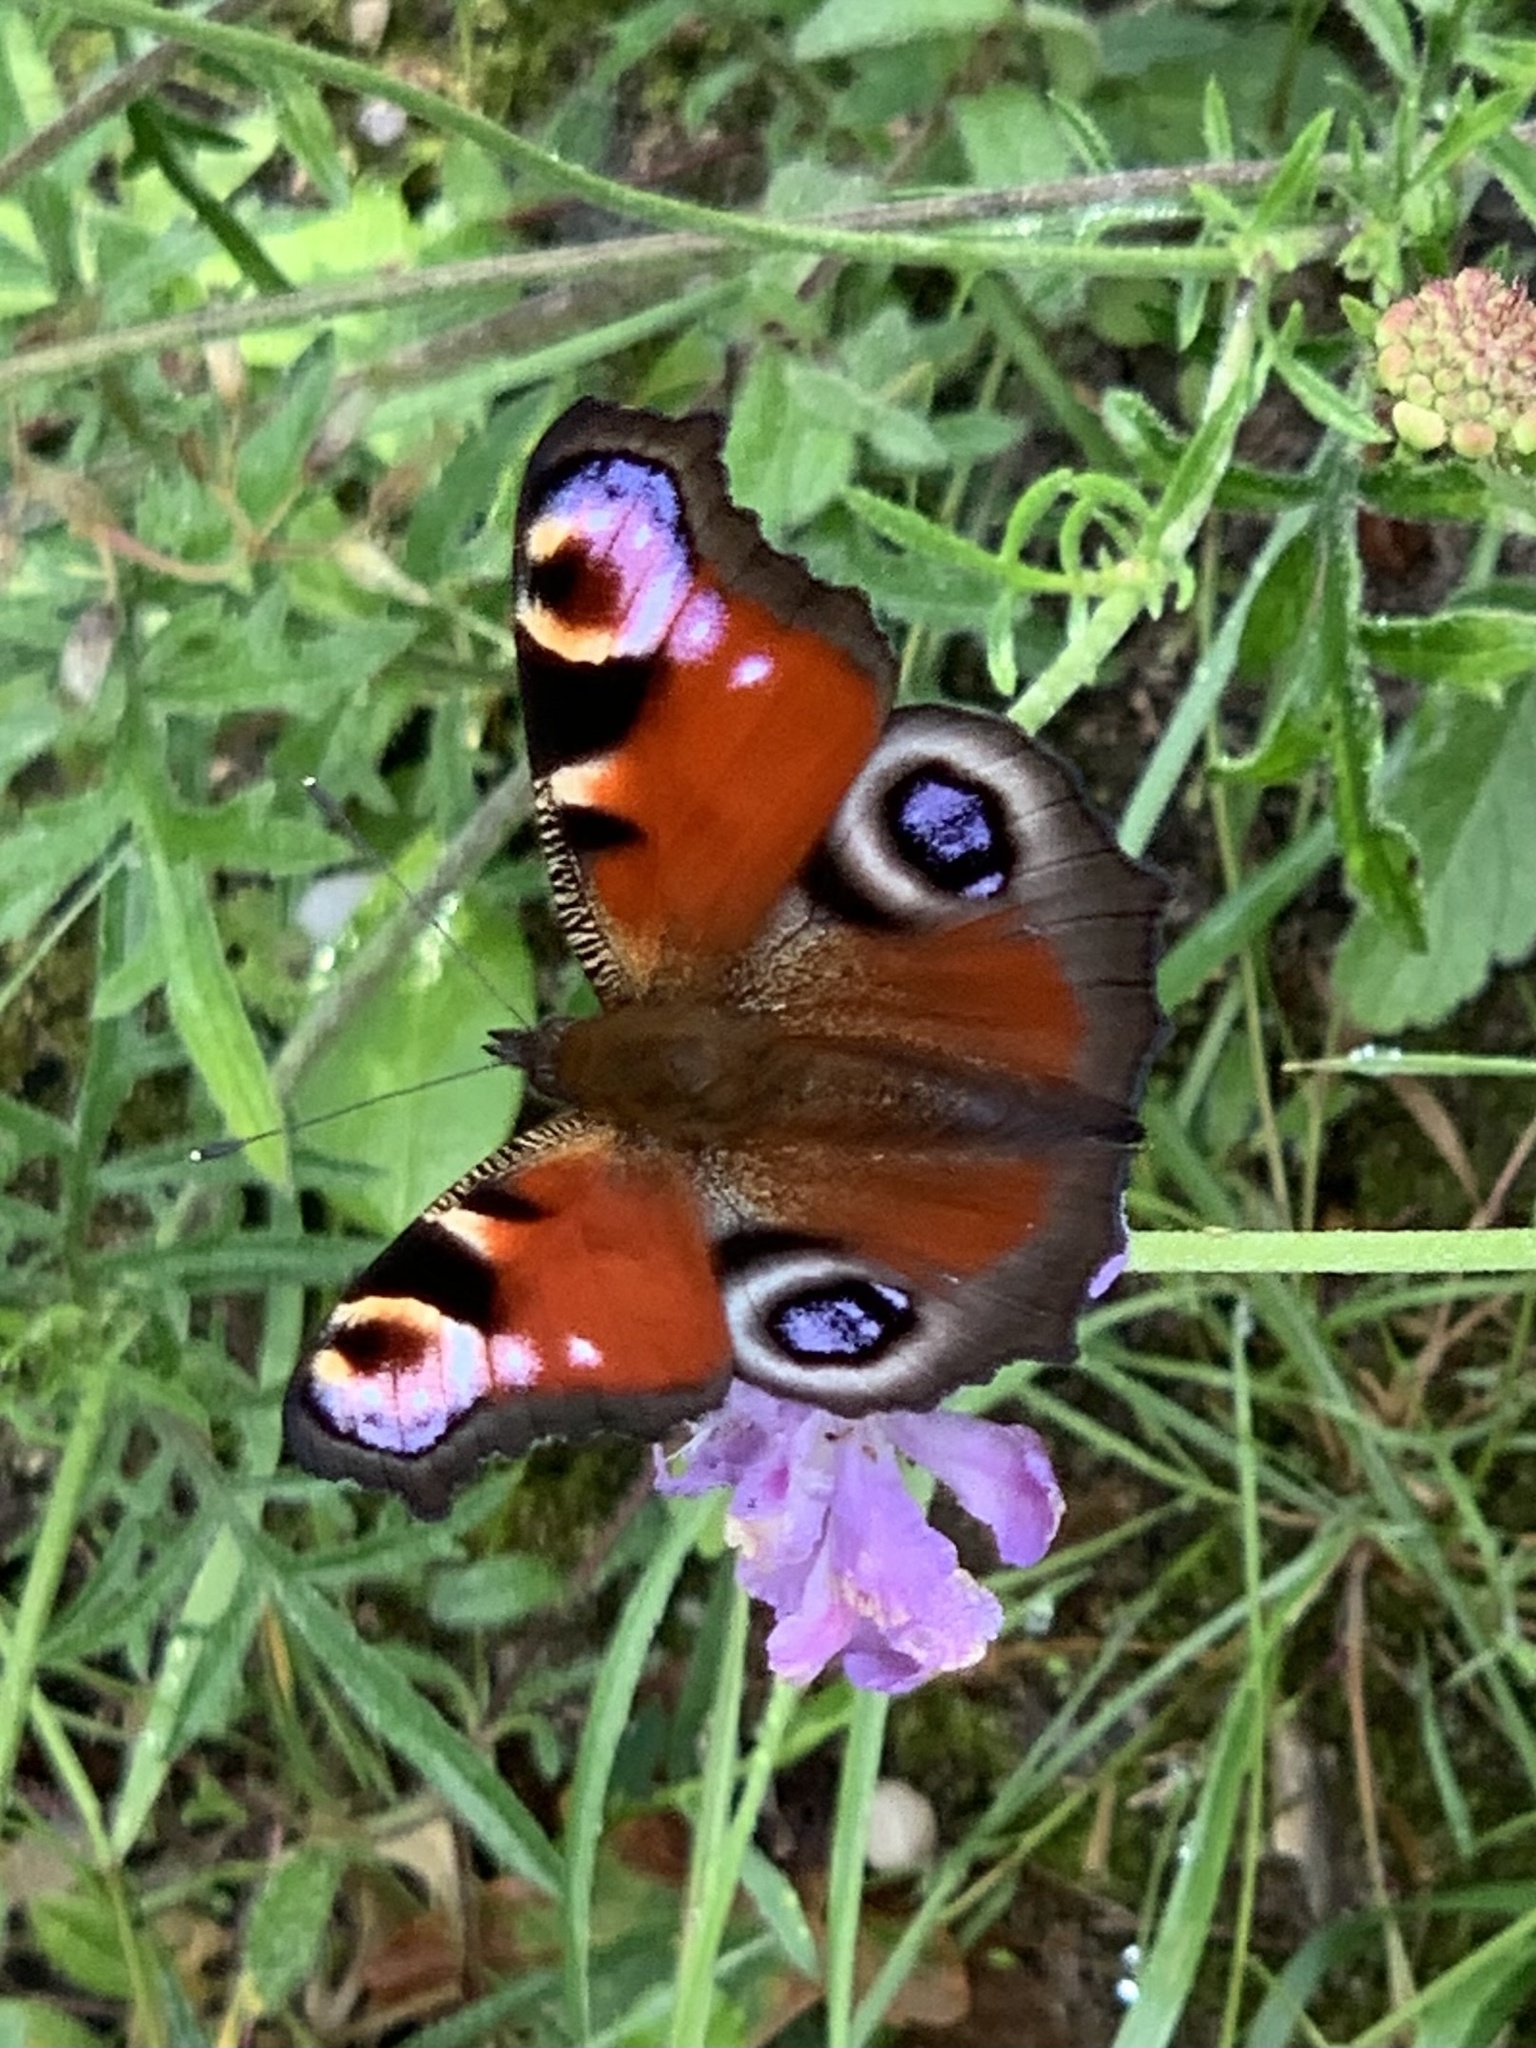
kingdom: Animalia
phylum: Arthropoda
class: Insecta
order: Lepidoptera
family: Nymphalidae
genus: Aglais
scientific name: Aglais io
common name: Peacock
